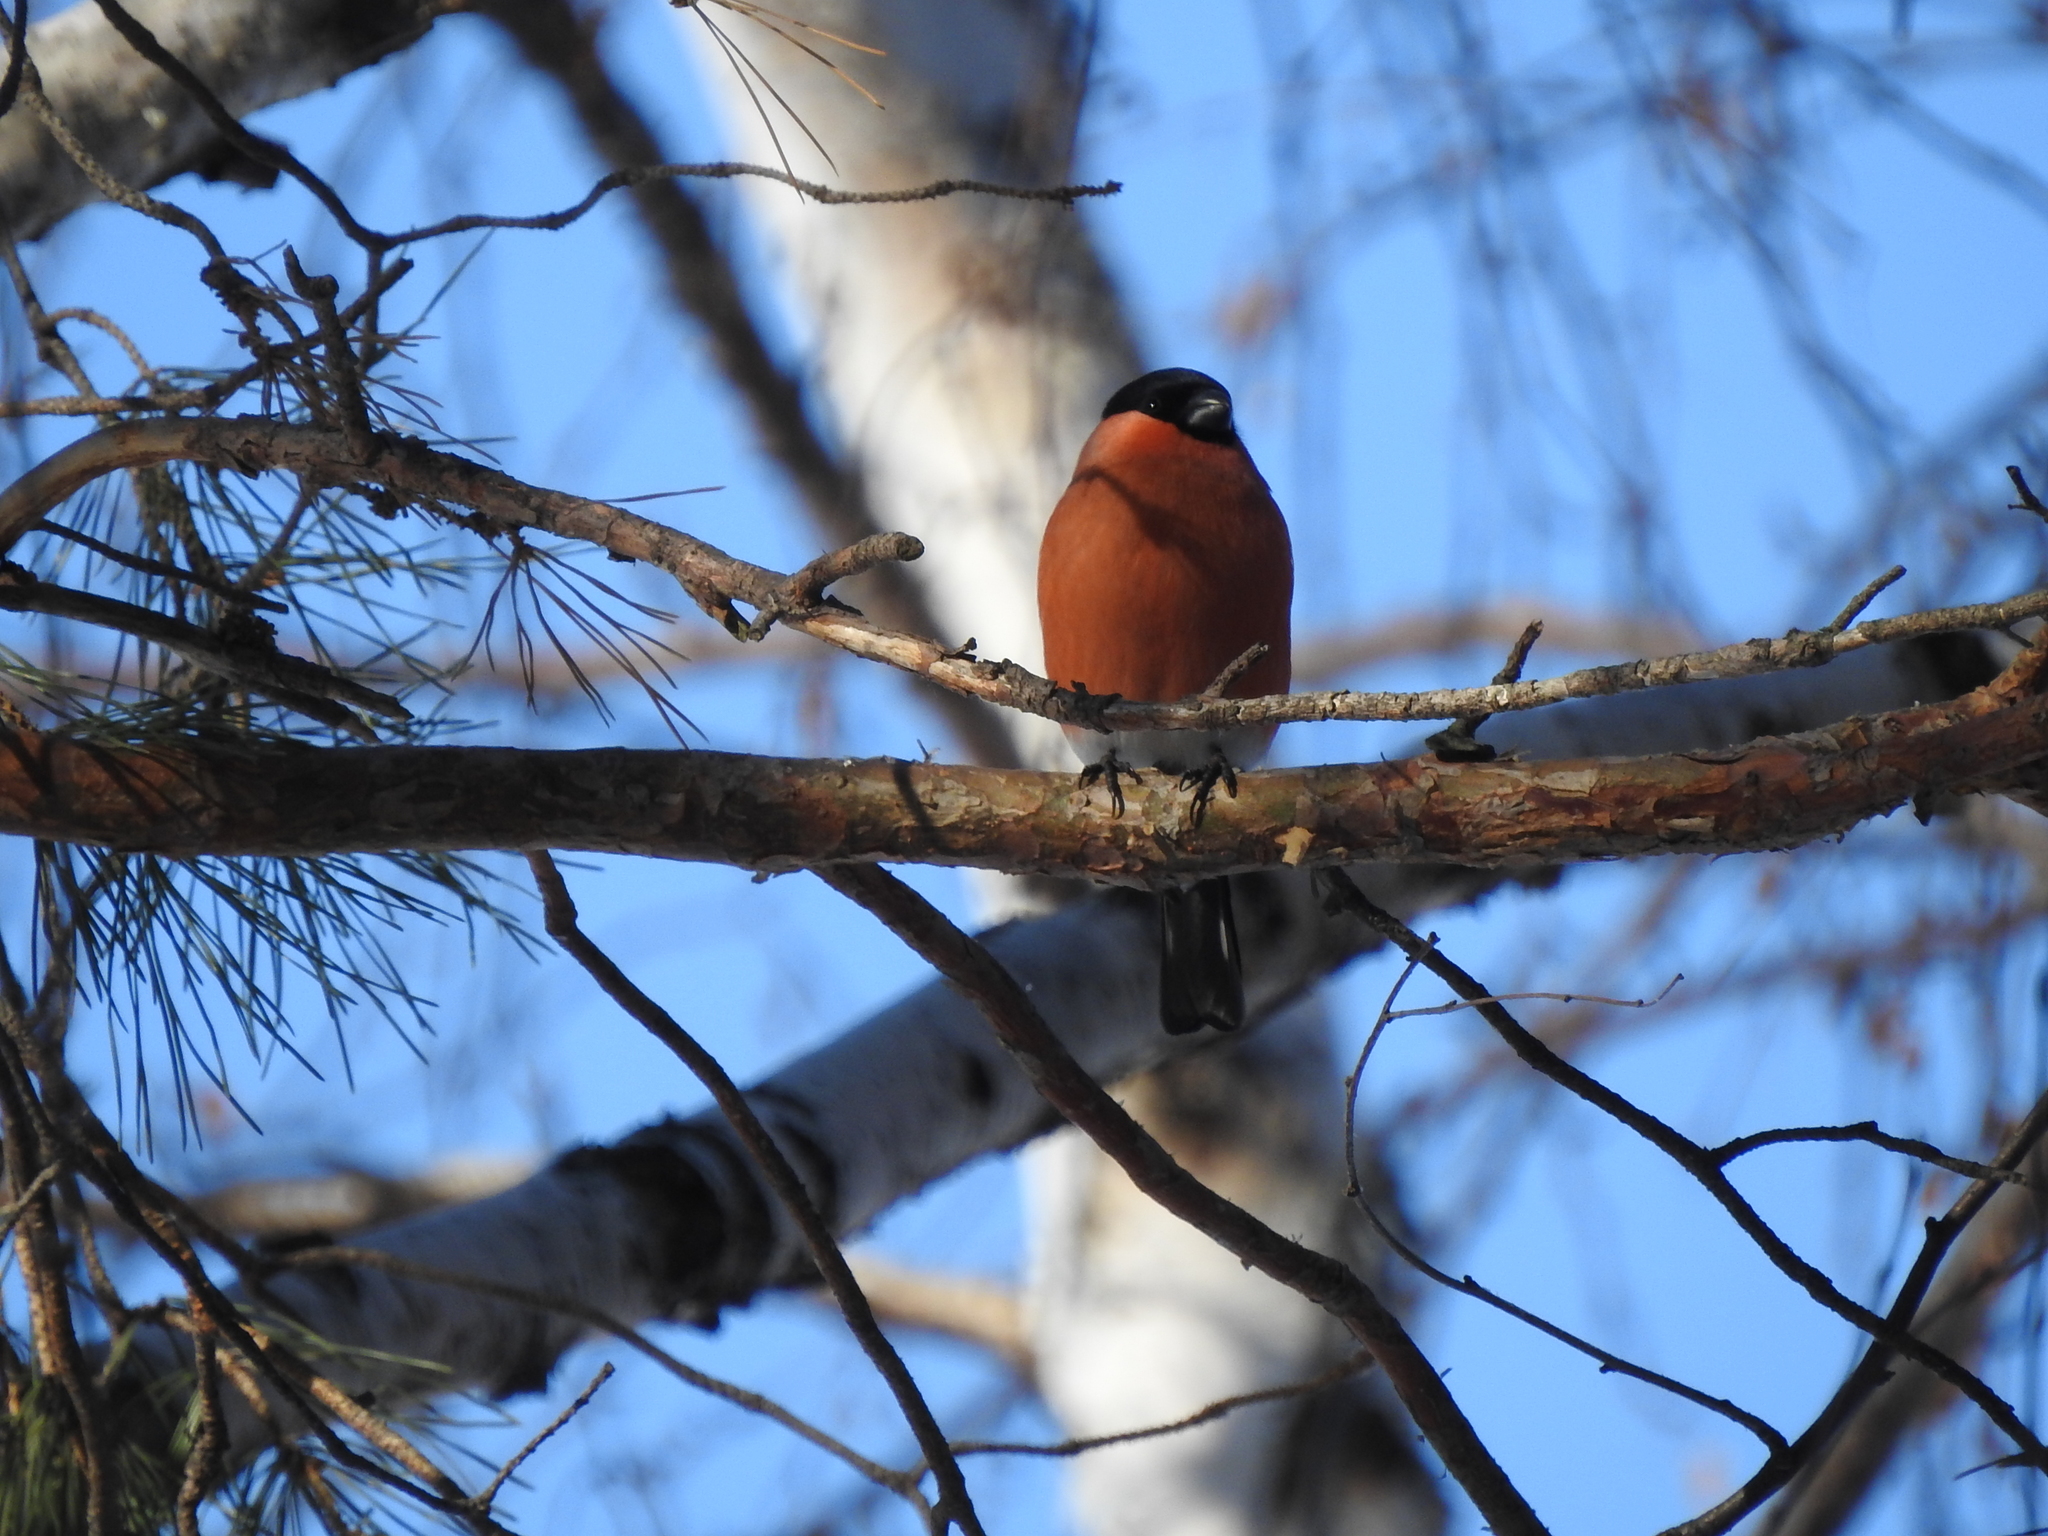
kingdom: Animalia
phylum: Chordata
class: Aves
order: Passeriformes
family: Fringillidae
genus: Pyrrhula
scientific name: Pyrrhula pyrrhula
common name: Eurasian bullfinch
